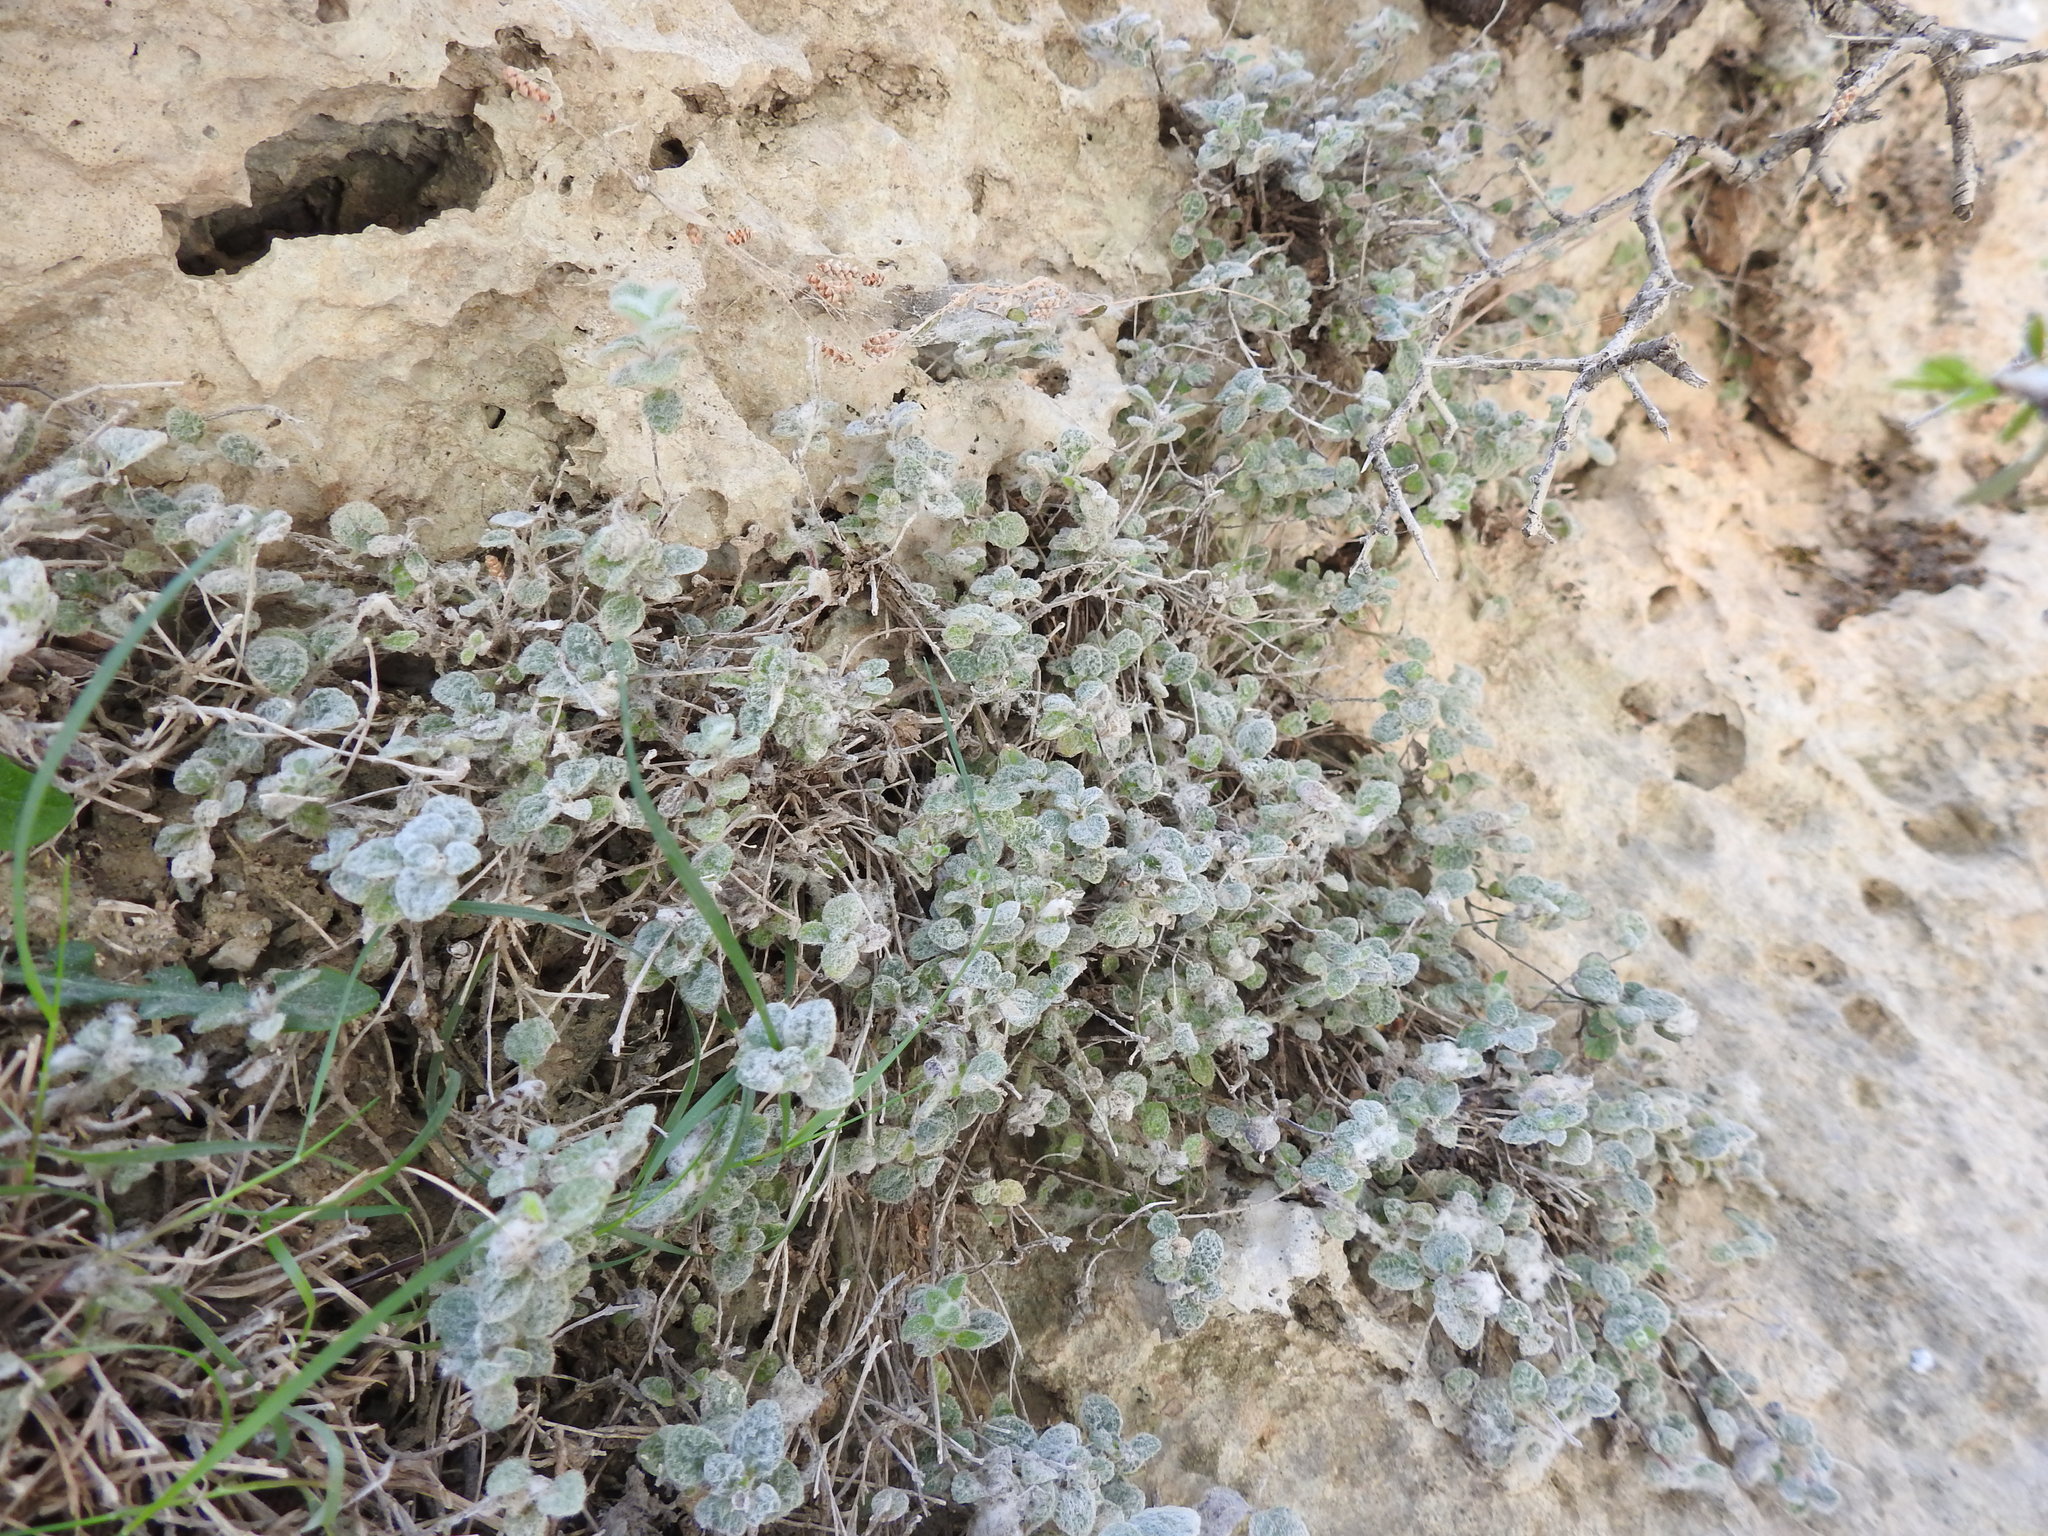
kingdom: Plantae
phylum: Tracheophyta
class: Magnoliopsida
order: Lamiales
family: Lamiaceae
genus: Origanum
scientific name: Origanum dictamnus
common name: Cretan dittany
